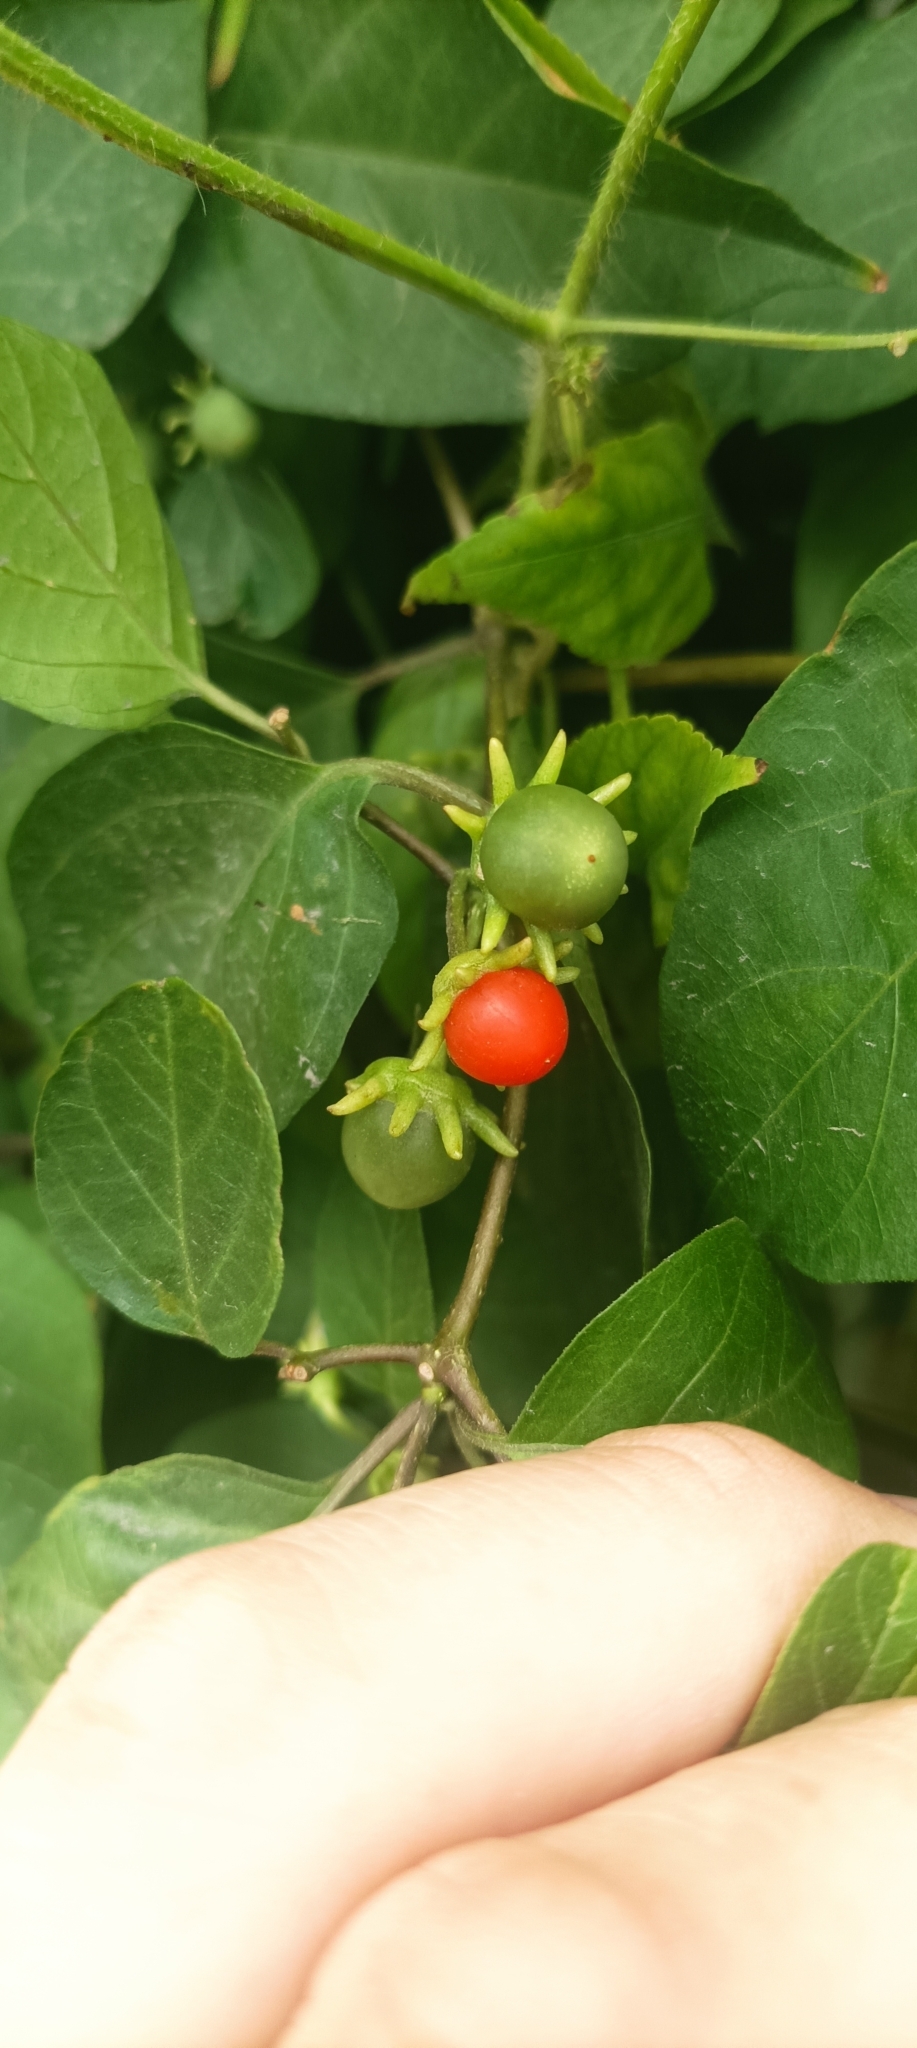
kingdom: Plantae
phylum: Tracheophyta
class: Magnoliopsida
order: Solanales
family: Solanaceae
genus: Lycianthes
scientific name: Lycianthes scandens
